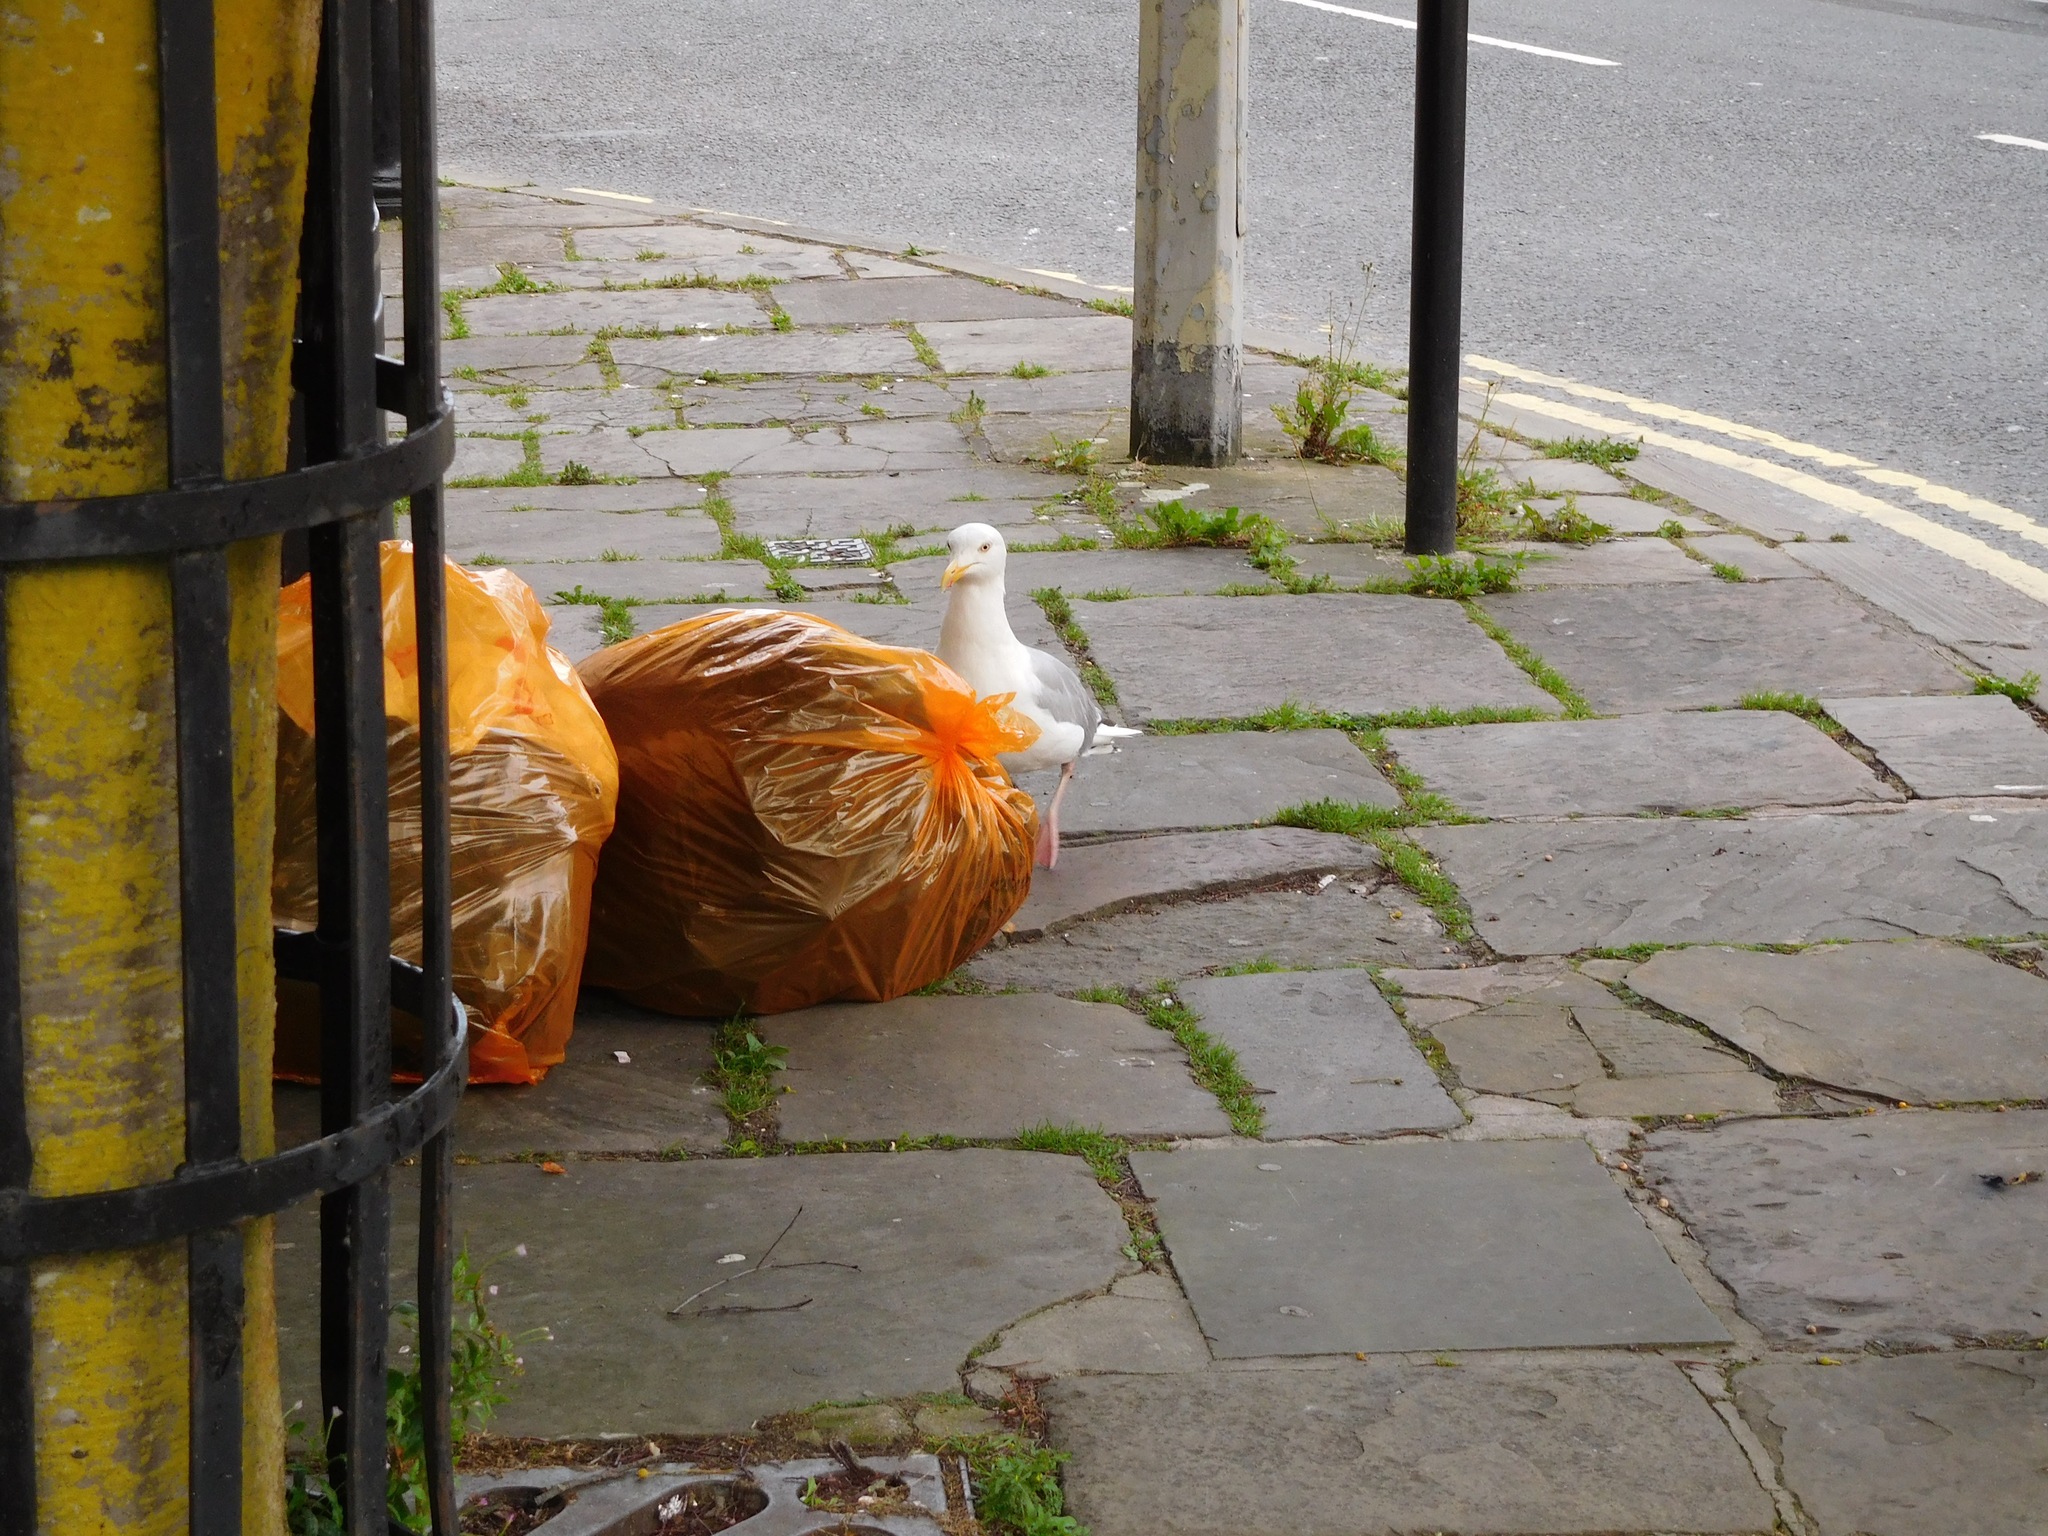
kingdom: Animalia
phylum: Chordata
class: Aves
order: Charadriiformes
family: Laridae
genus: Larus
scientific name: Larus argentatus
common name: Herring gull
